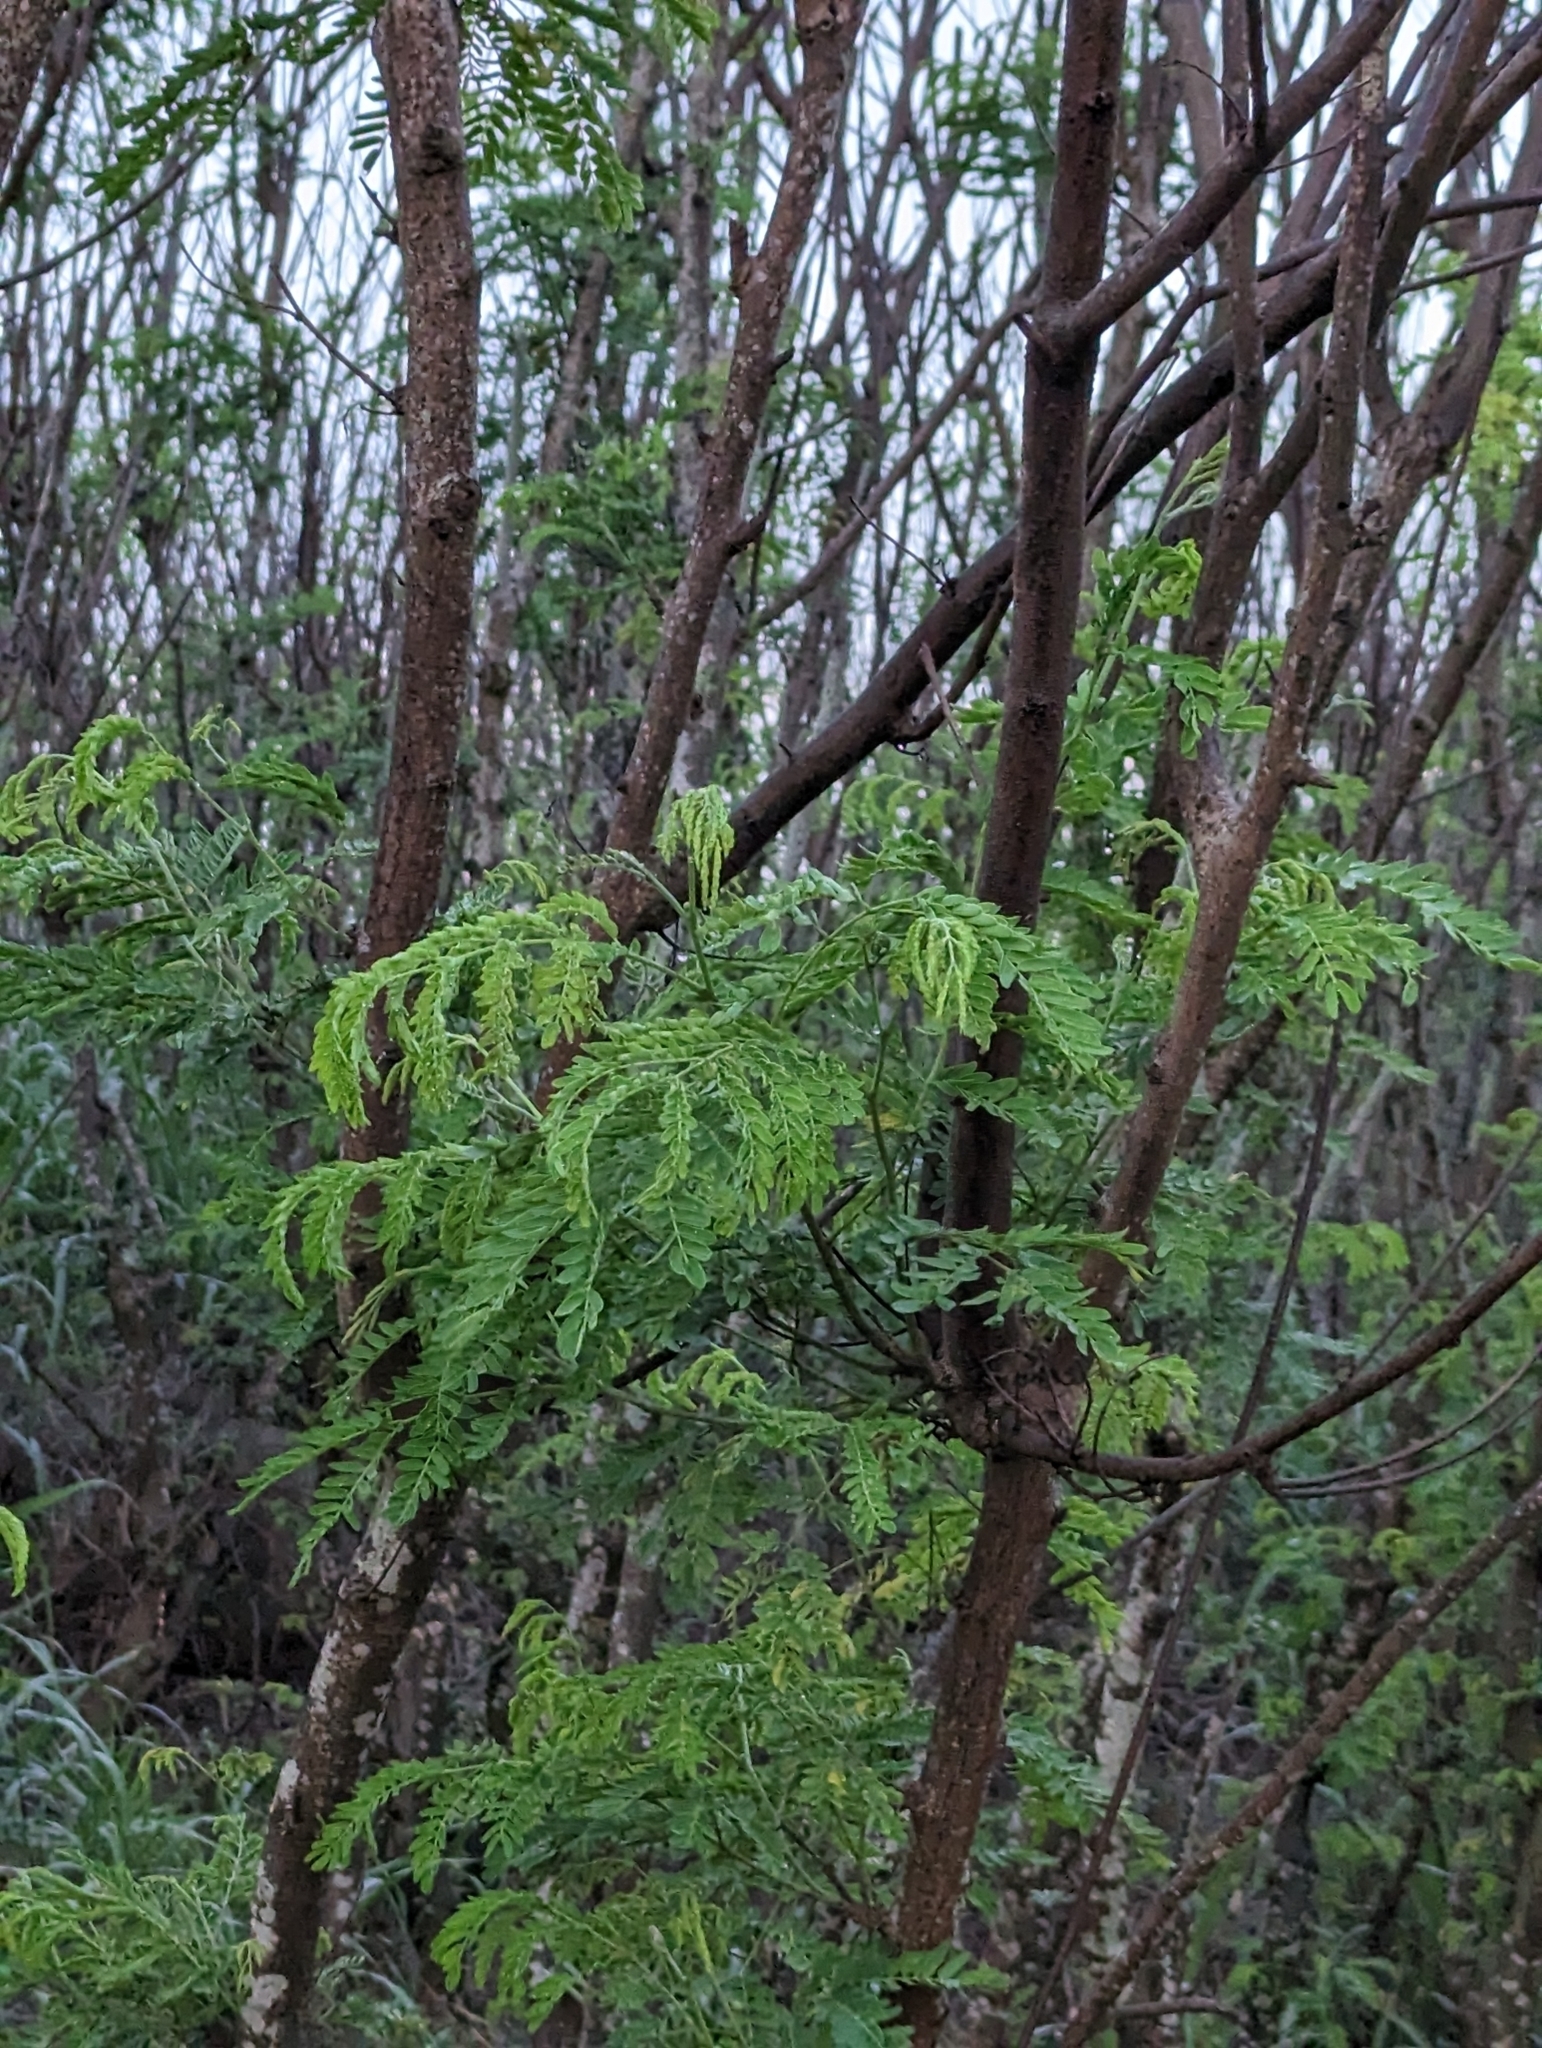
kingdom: Plantae
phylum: Tracheophyta
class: Magnoliopsida
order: Fabales
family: Fabaceae
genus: Leucaena
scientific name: Leucaena leucocephala
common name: White leadtree
